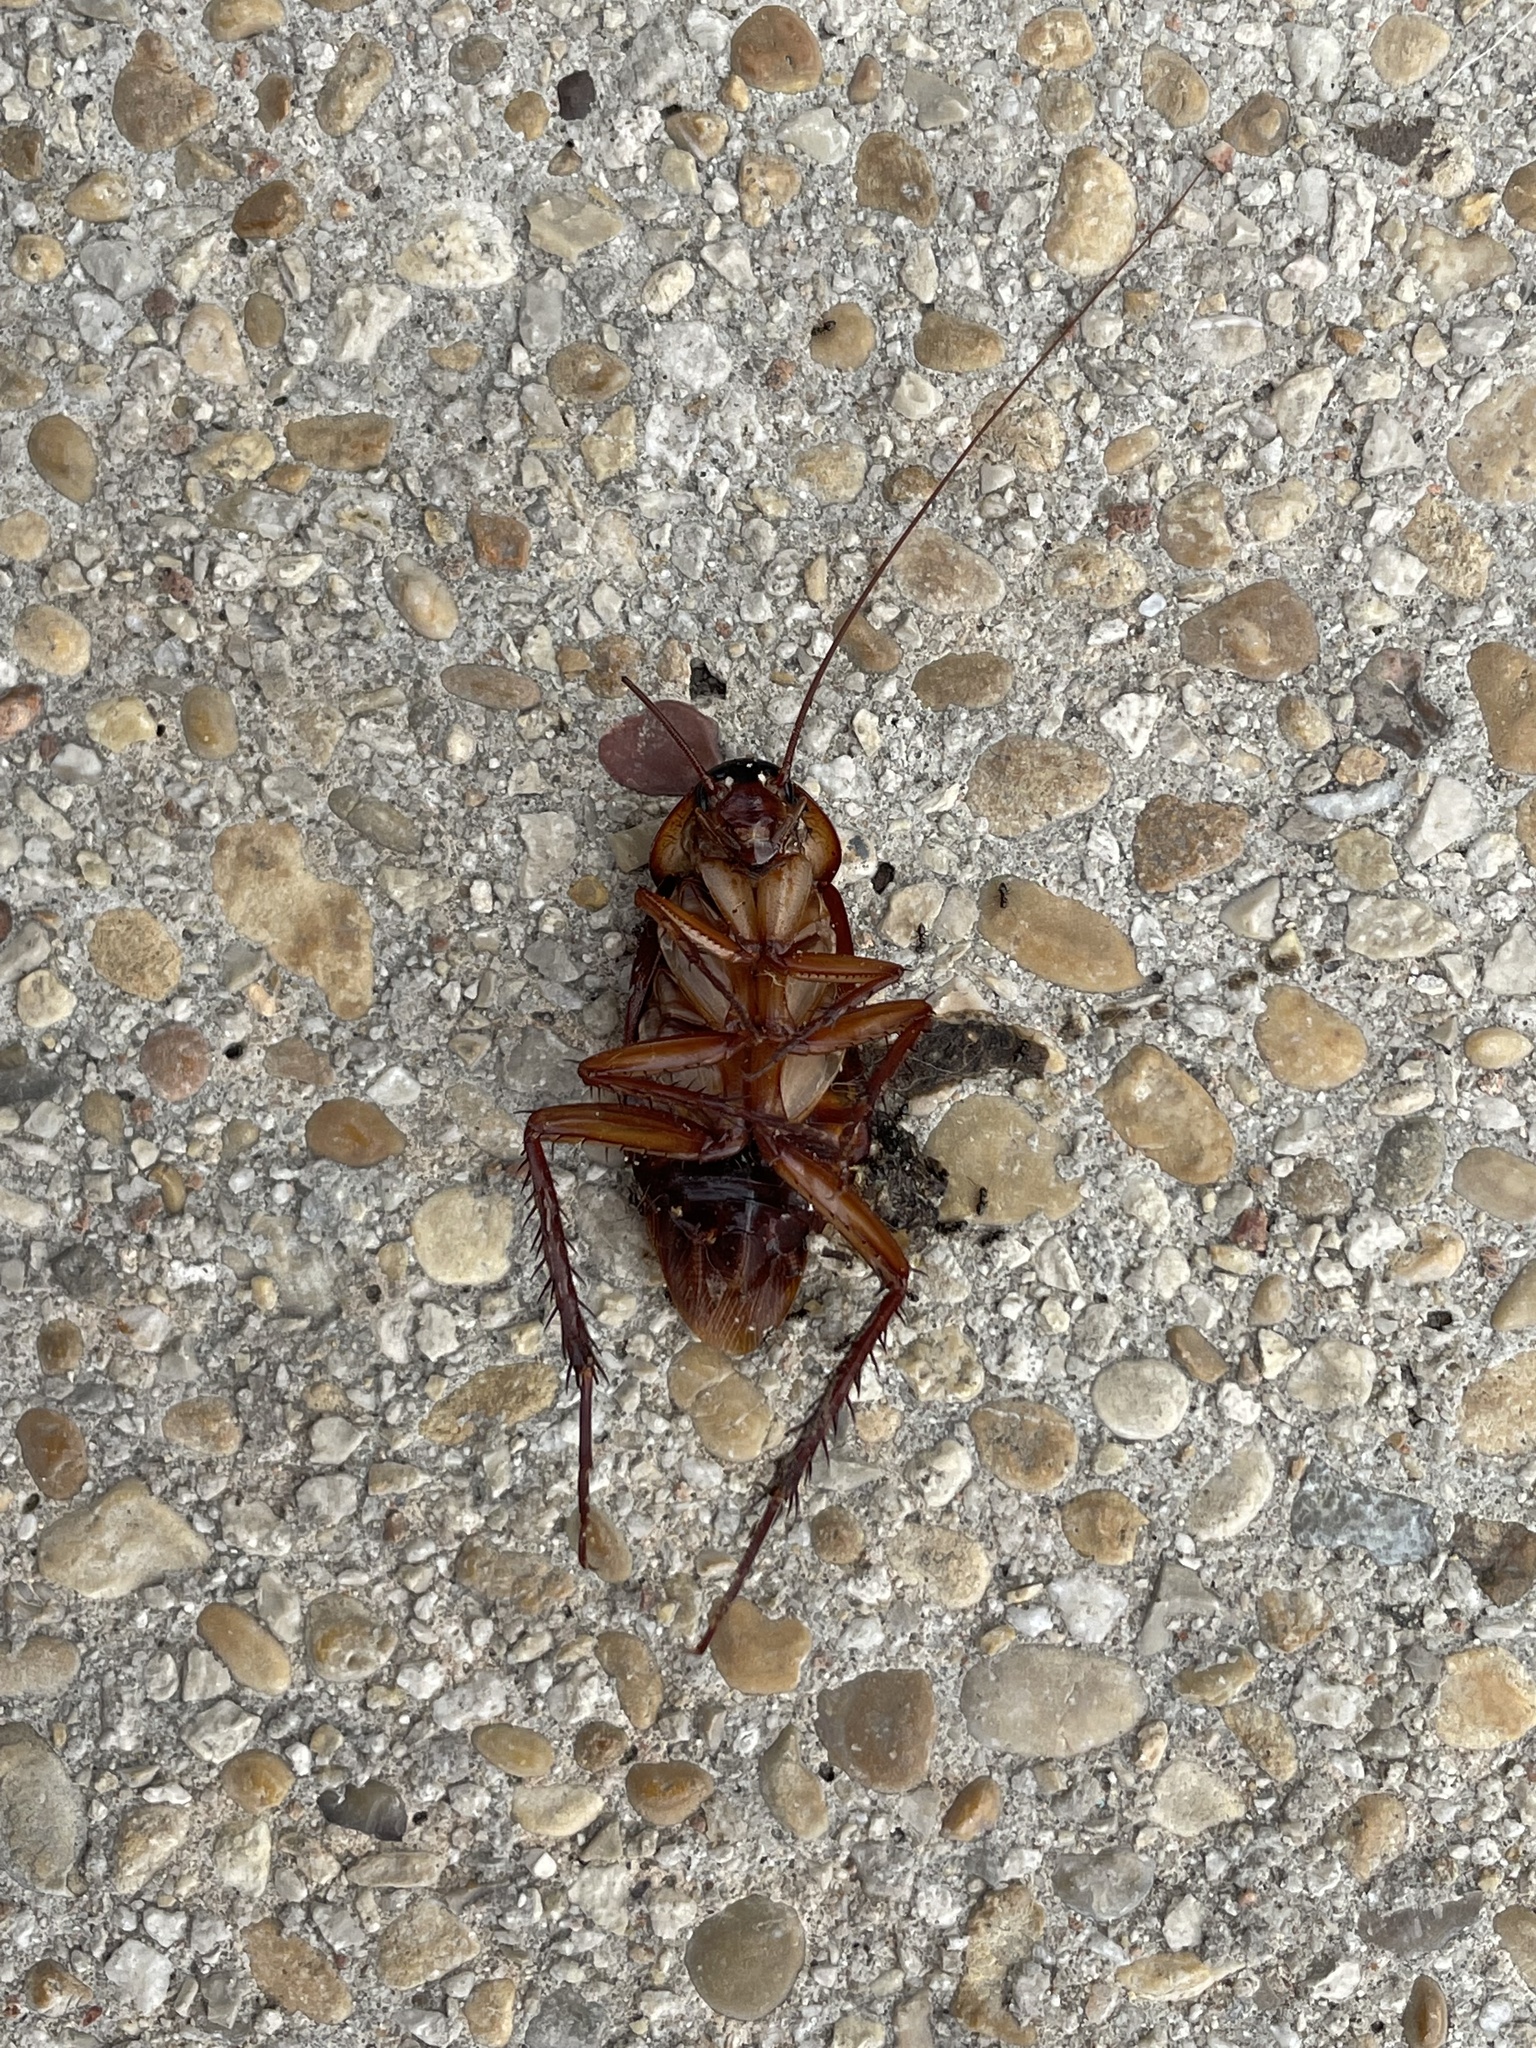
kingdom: Animalia
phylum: Arthropoda
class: Insecta
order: Blattodea
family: Blattidae
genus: Periplaneta
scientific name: Periplaneta americana
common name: American cockroach
